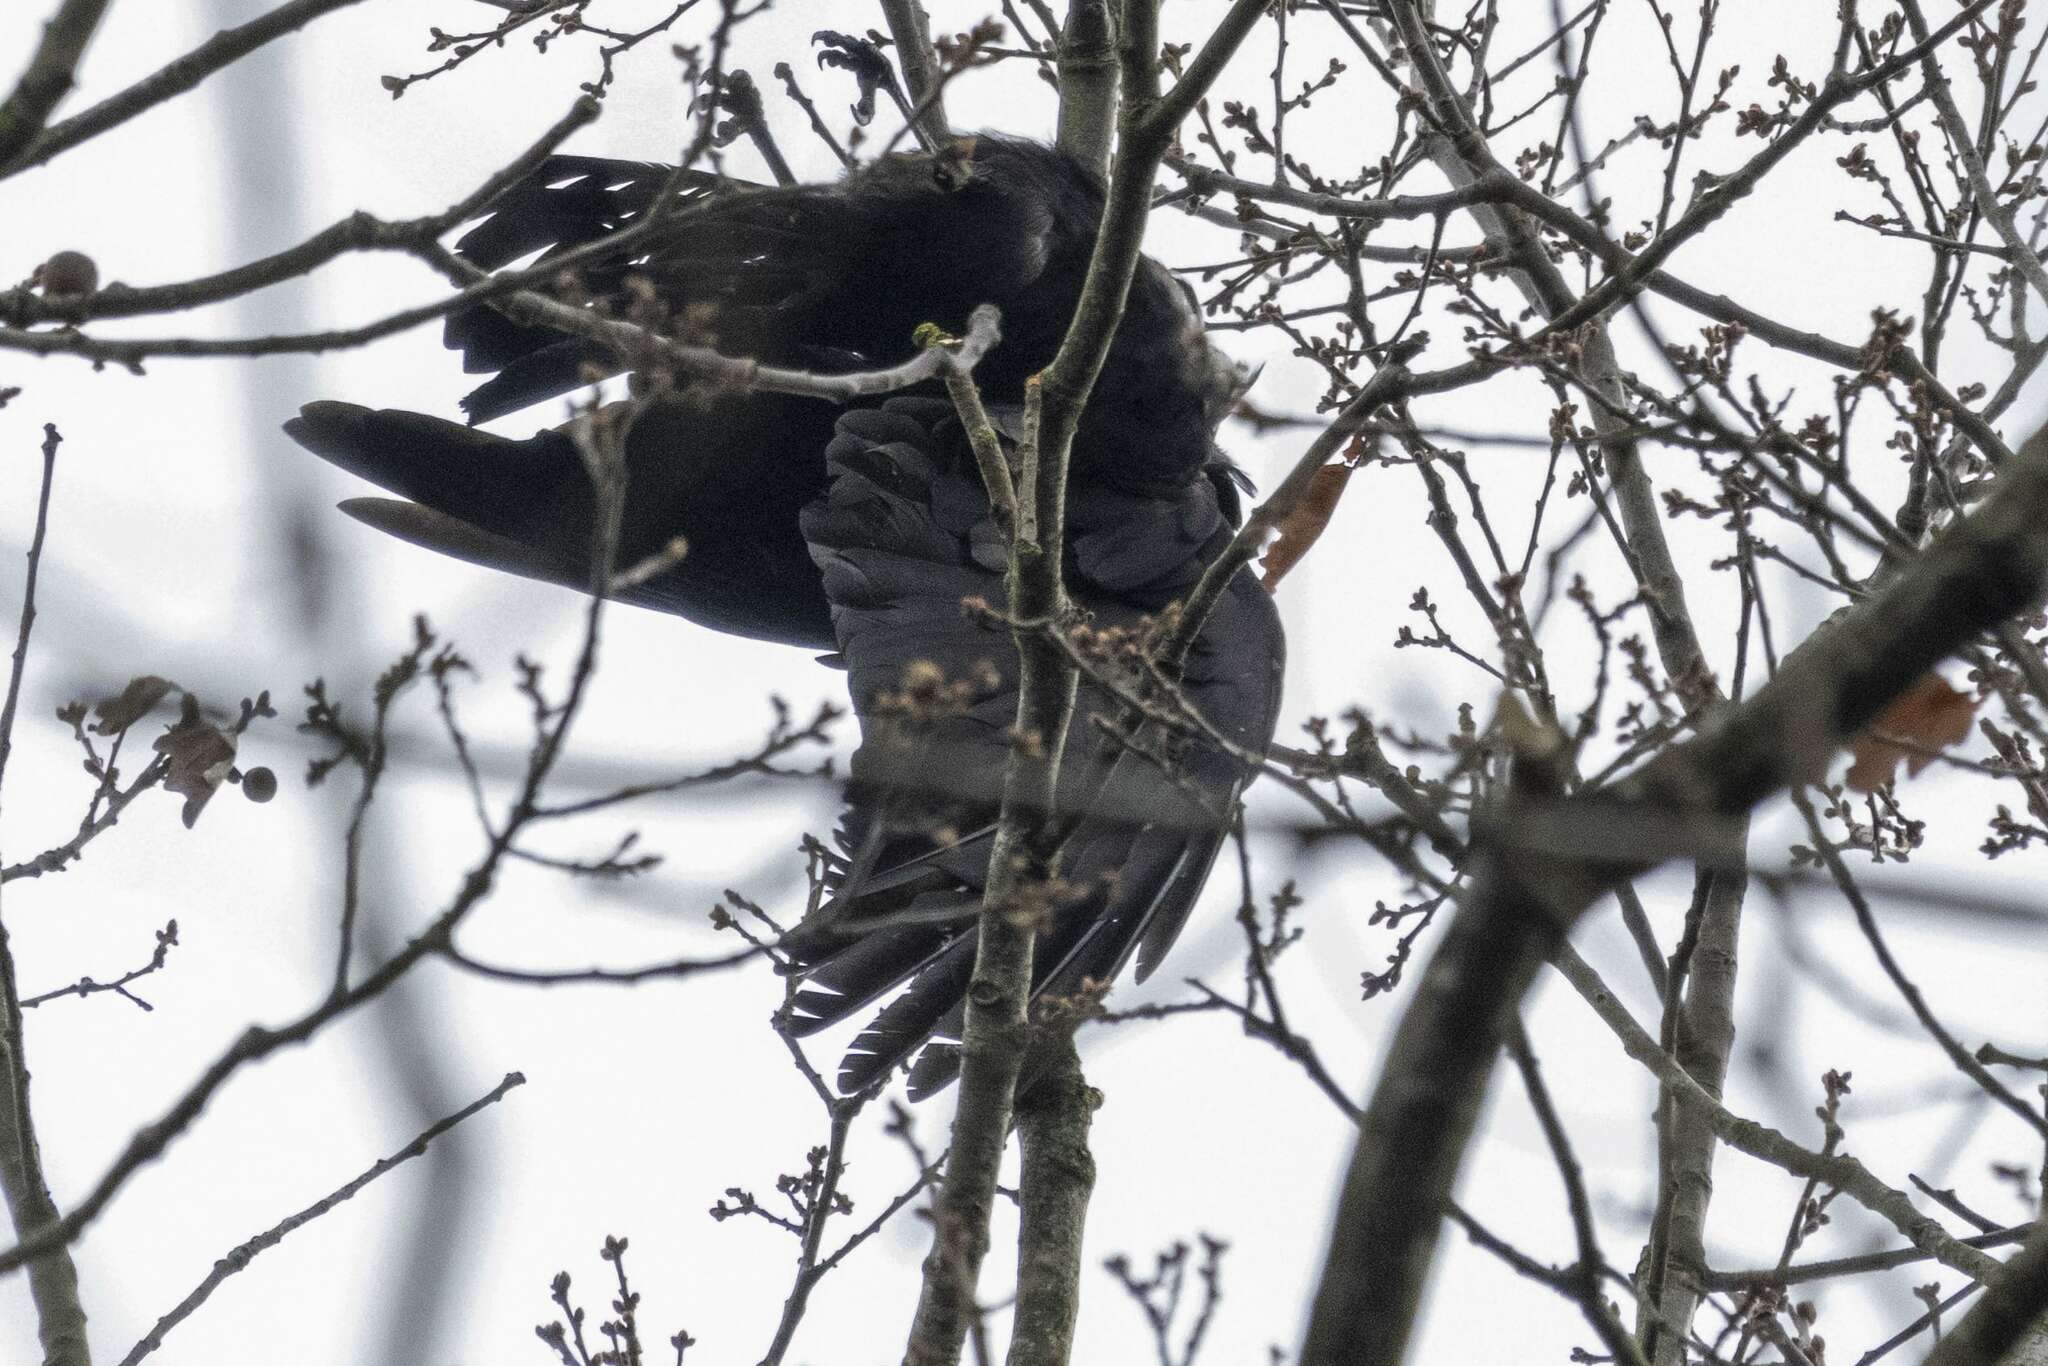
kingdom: Animalia
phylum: Chordata
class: Aves
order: Passeriformes
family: Corvidae
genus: Corvus
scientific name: Corvus corone
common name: Carrion crow
